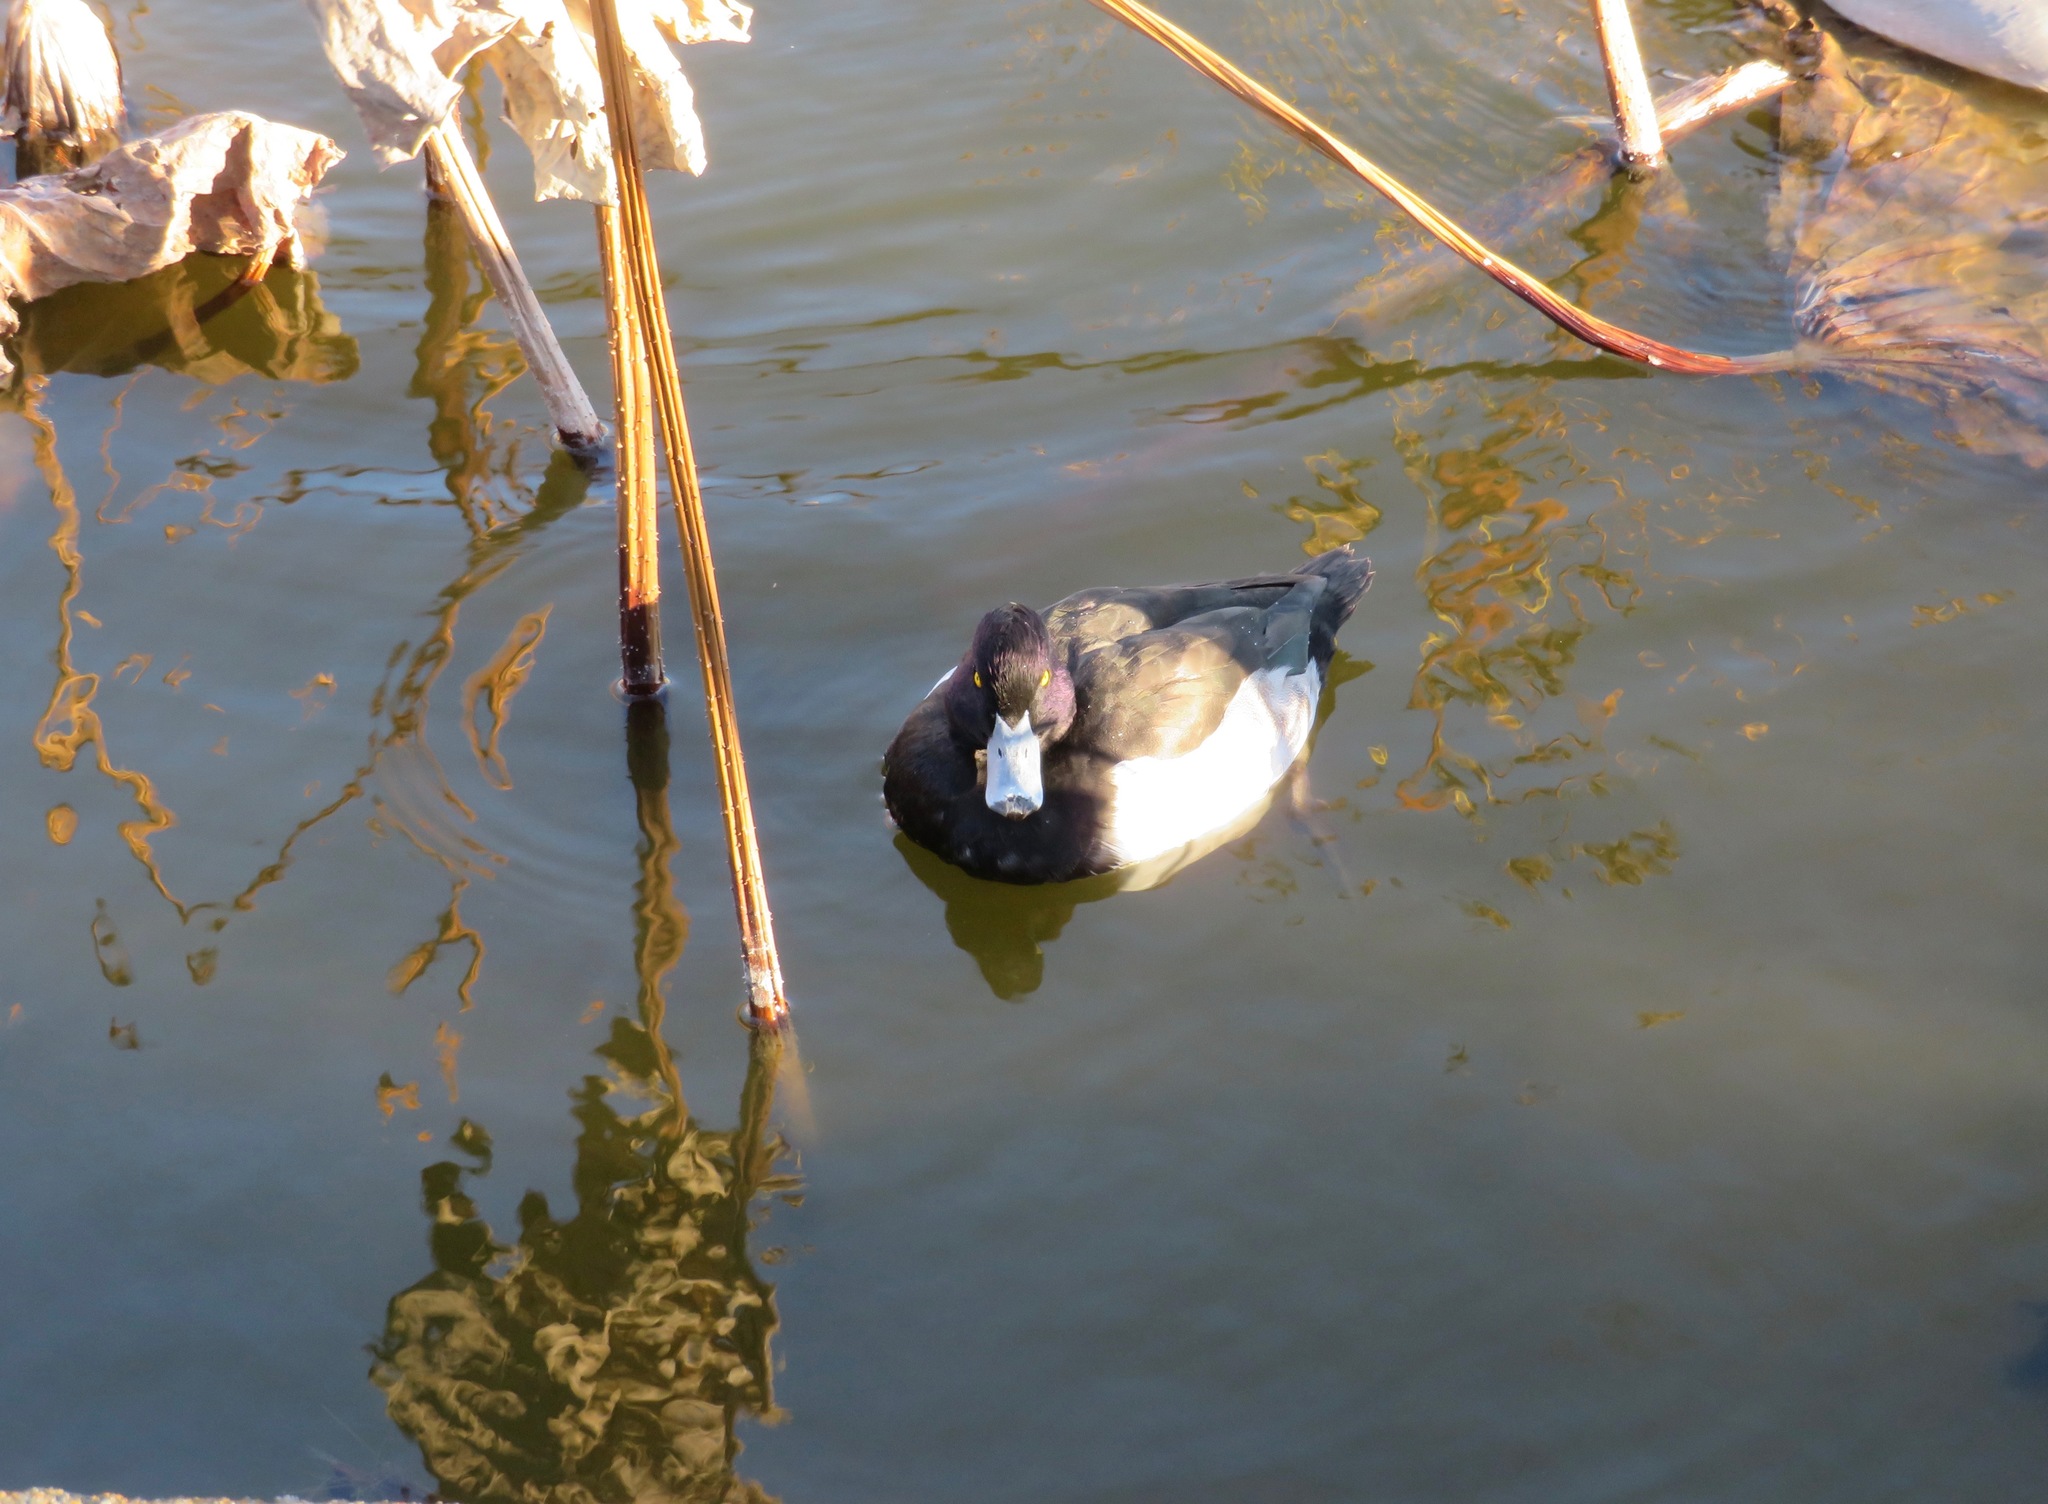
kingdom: Animalia
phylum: Chordata
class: Aves
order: Anseriformes
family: Anatidae
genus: Aythya
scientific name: Aythya fuligula
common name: Tufted duck
